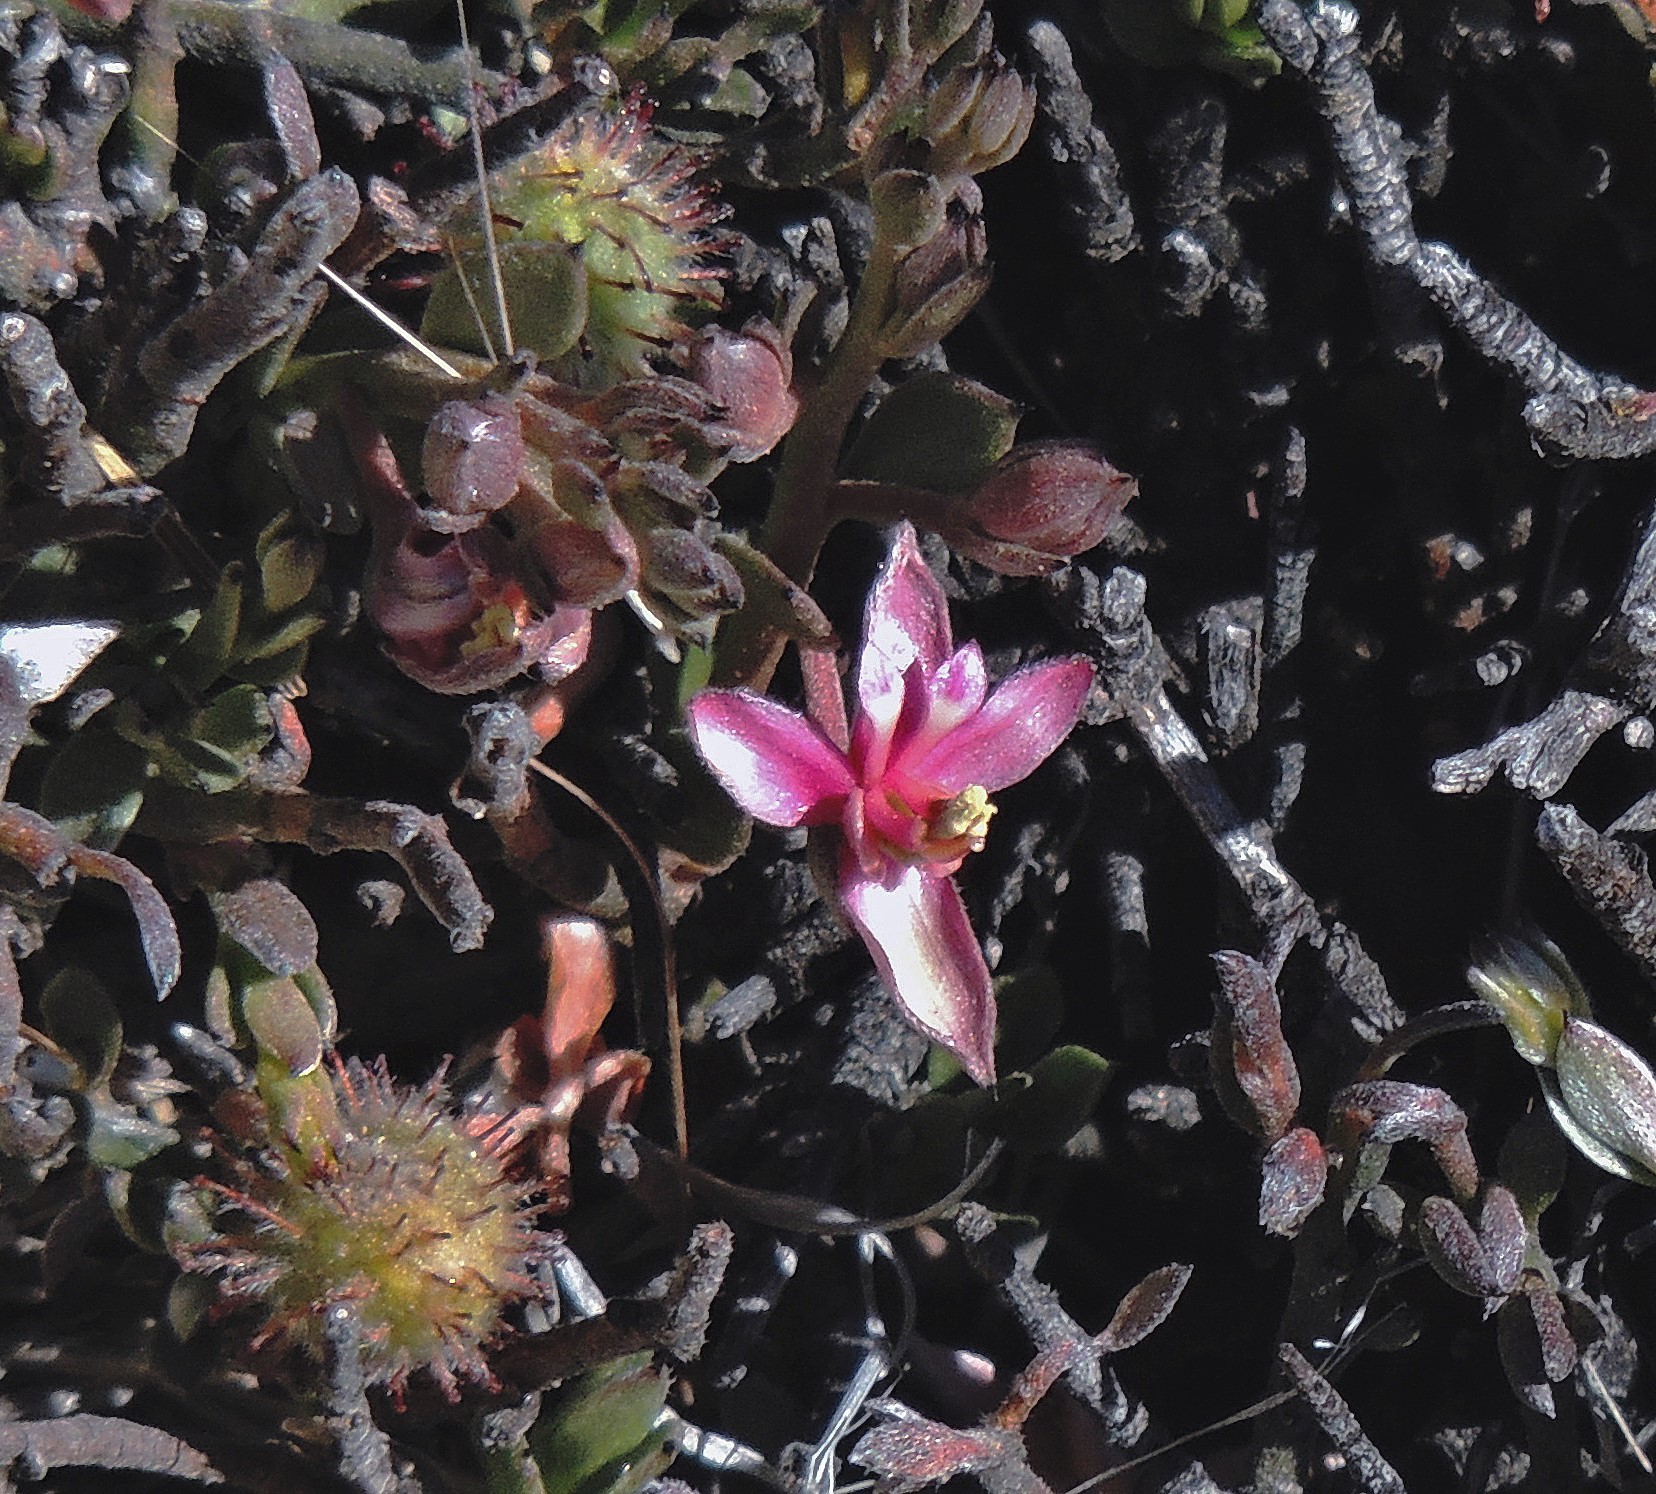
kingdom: Plantae
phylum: Tracheophyta
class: Magnoliopsida
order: Zygophyllales
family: Krameriaceae
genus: Krameria
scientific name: Krameria lappacea
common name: Rhatany
